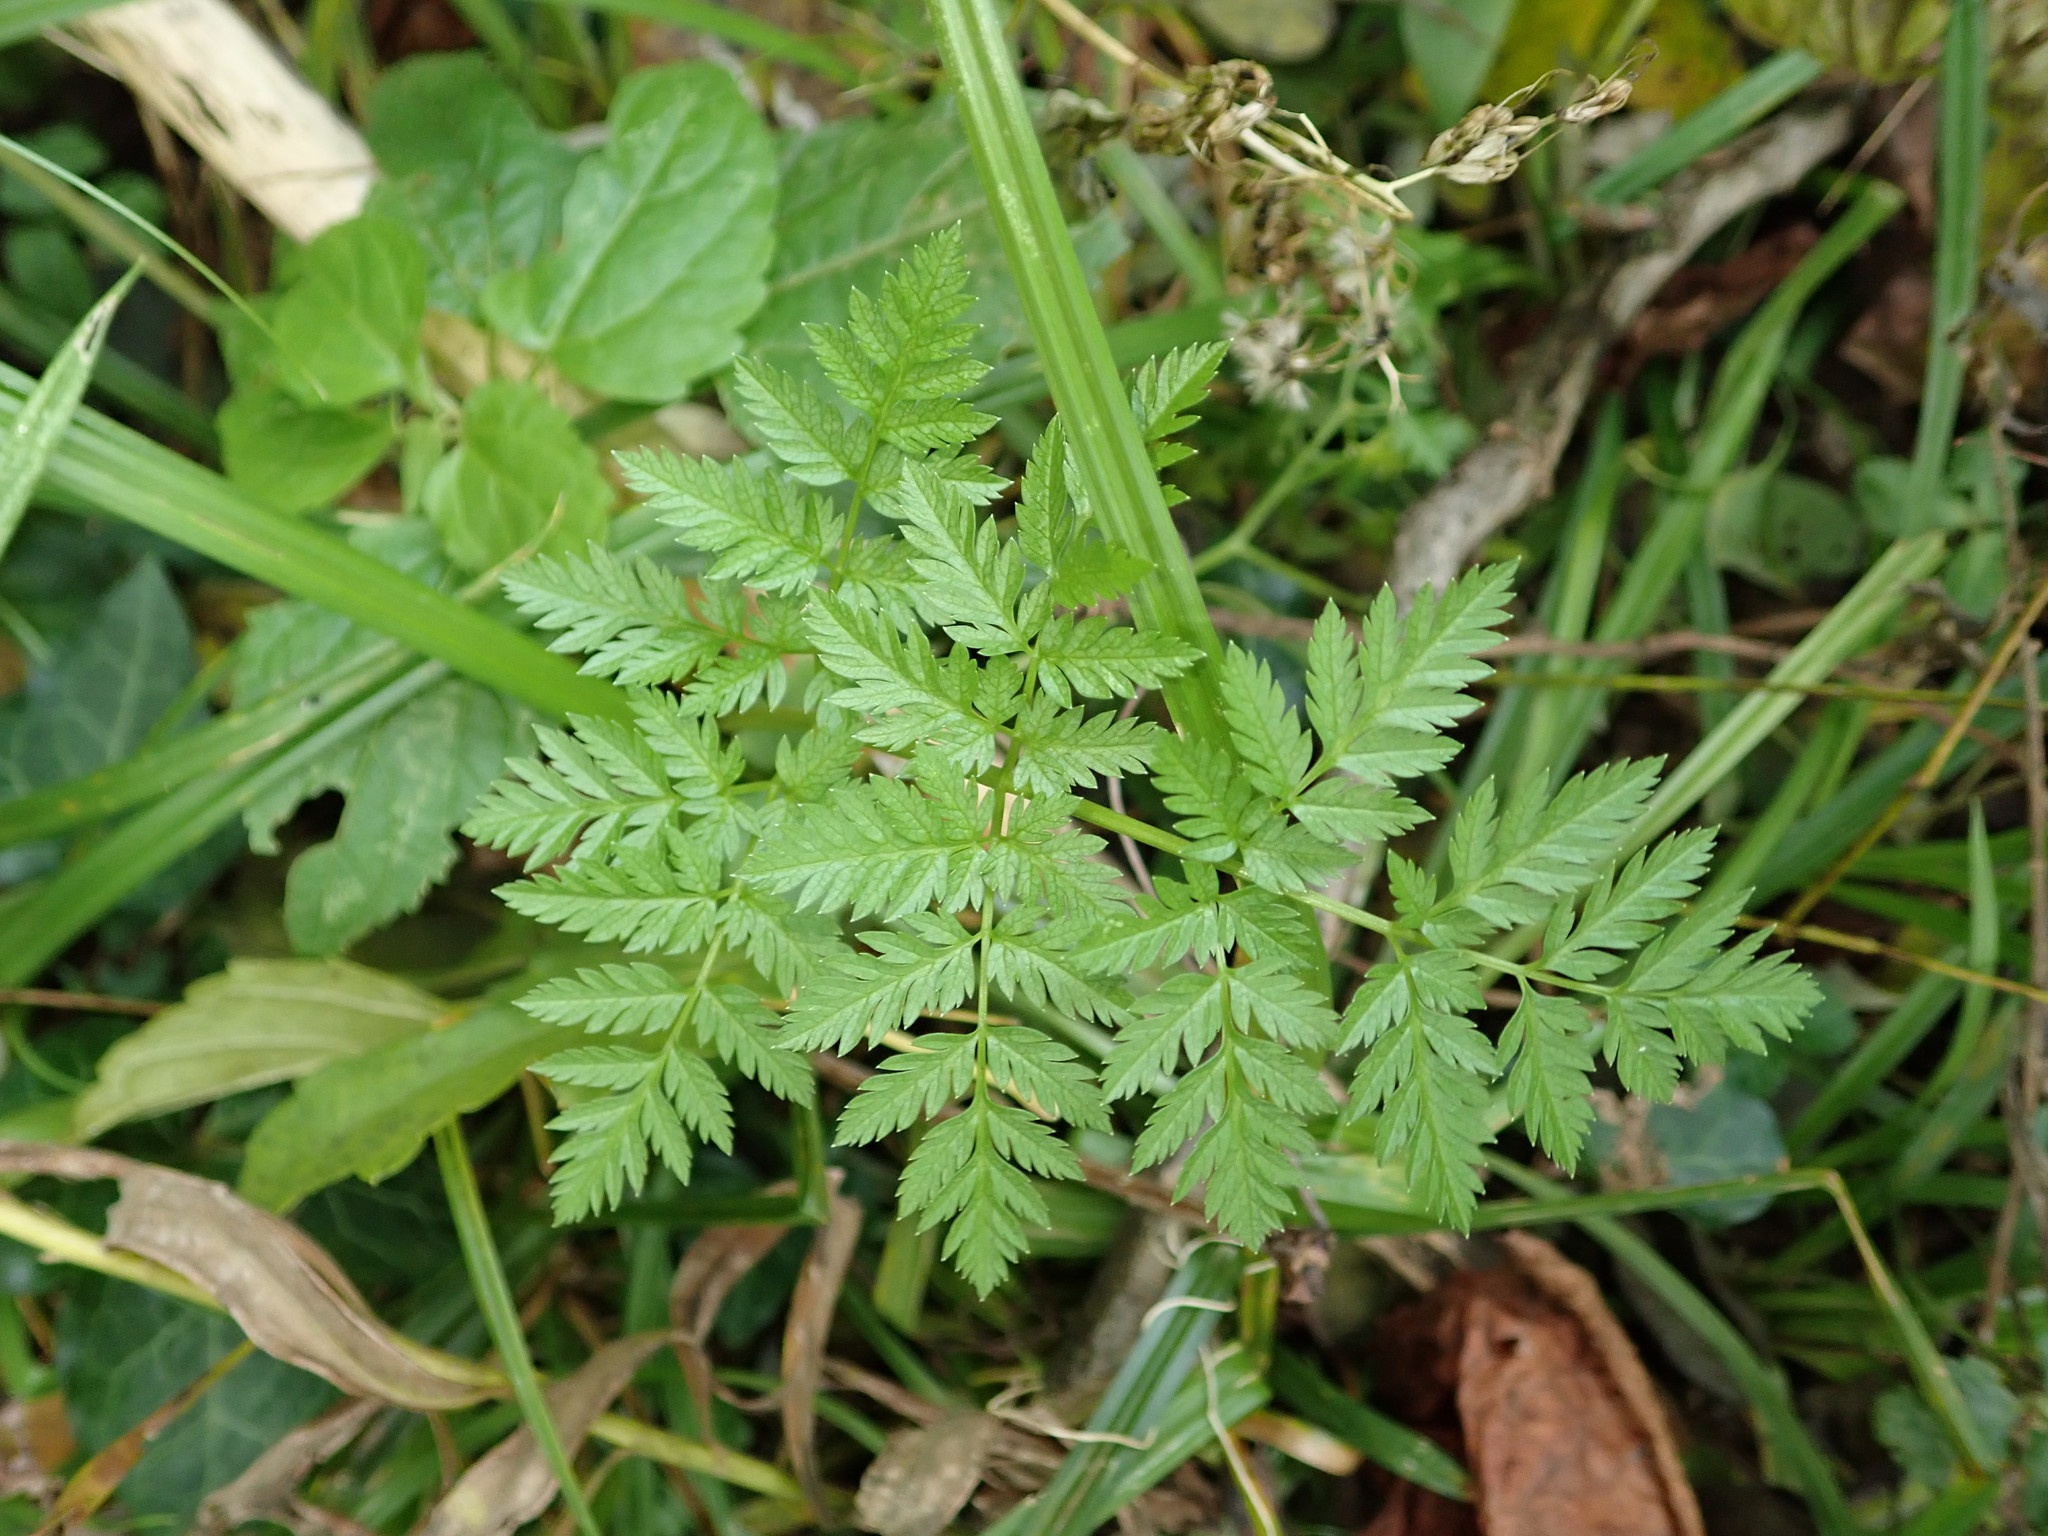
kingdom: Plantae
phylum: Tracheophyta
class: Magnoliopsida
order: Apiales
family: Apiaceae
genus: Conium
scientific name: Conium maculatum
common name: Hemlock
